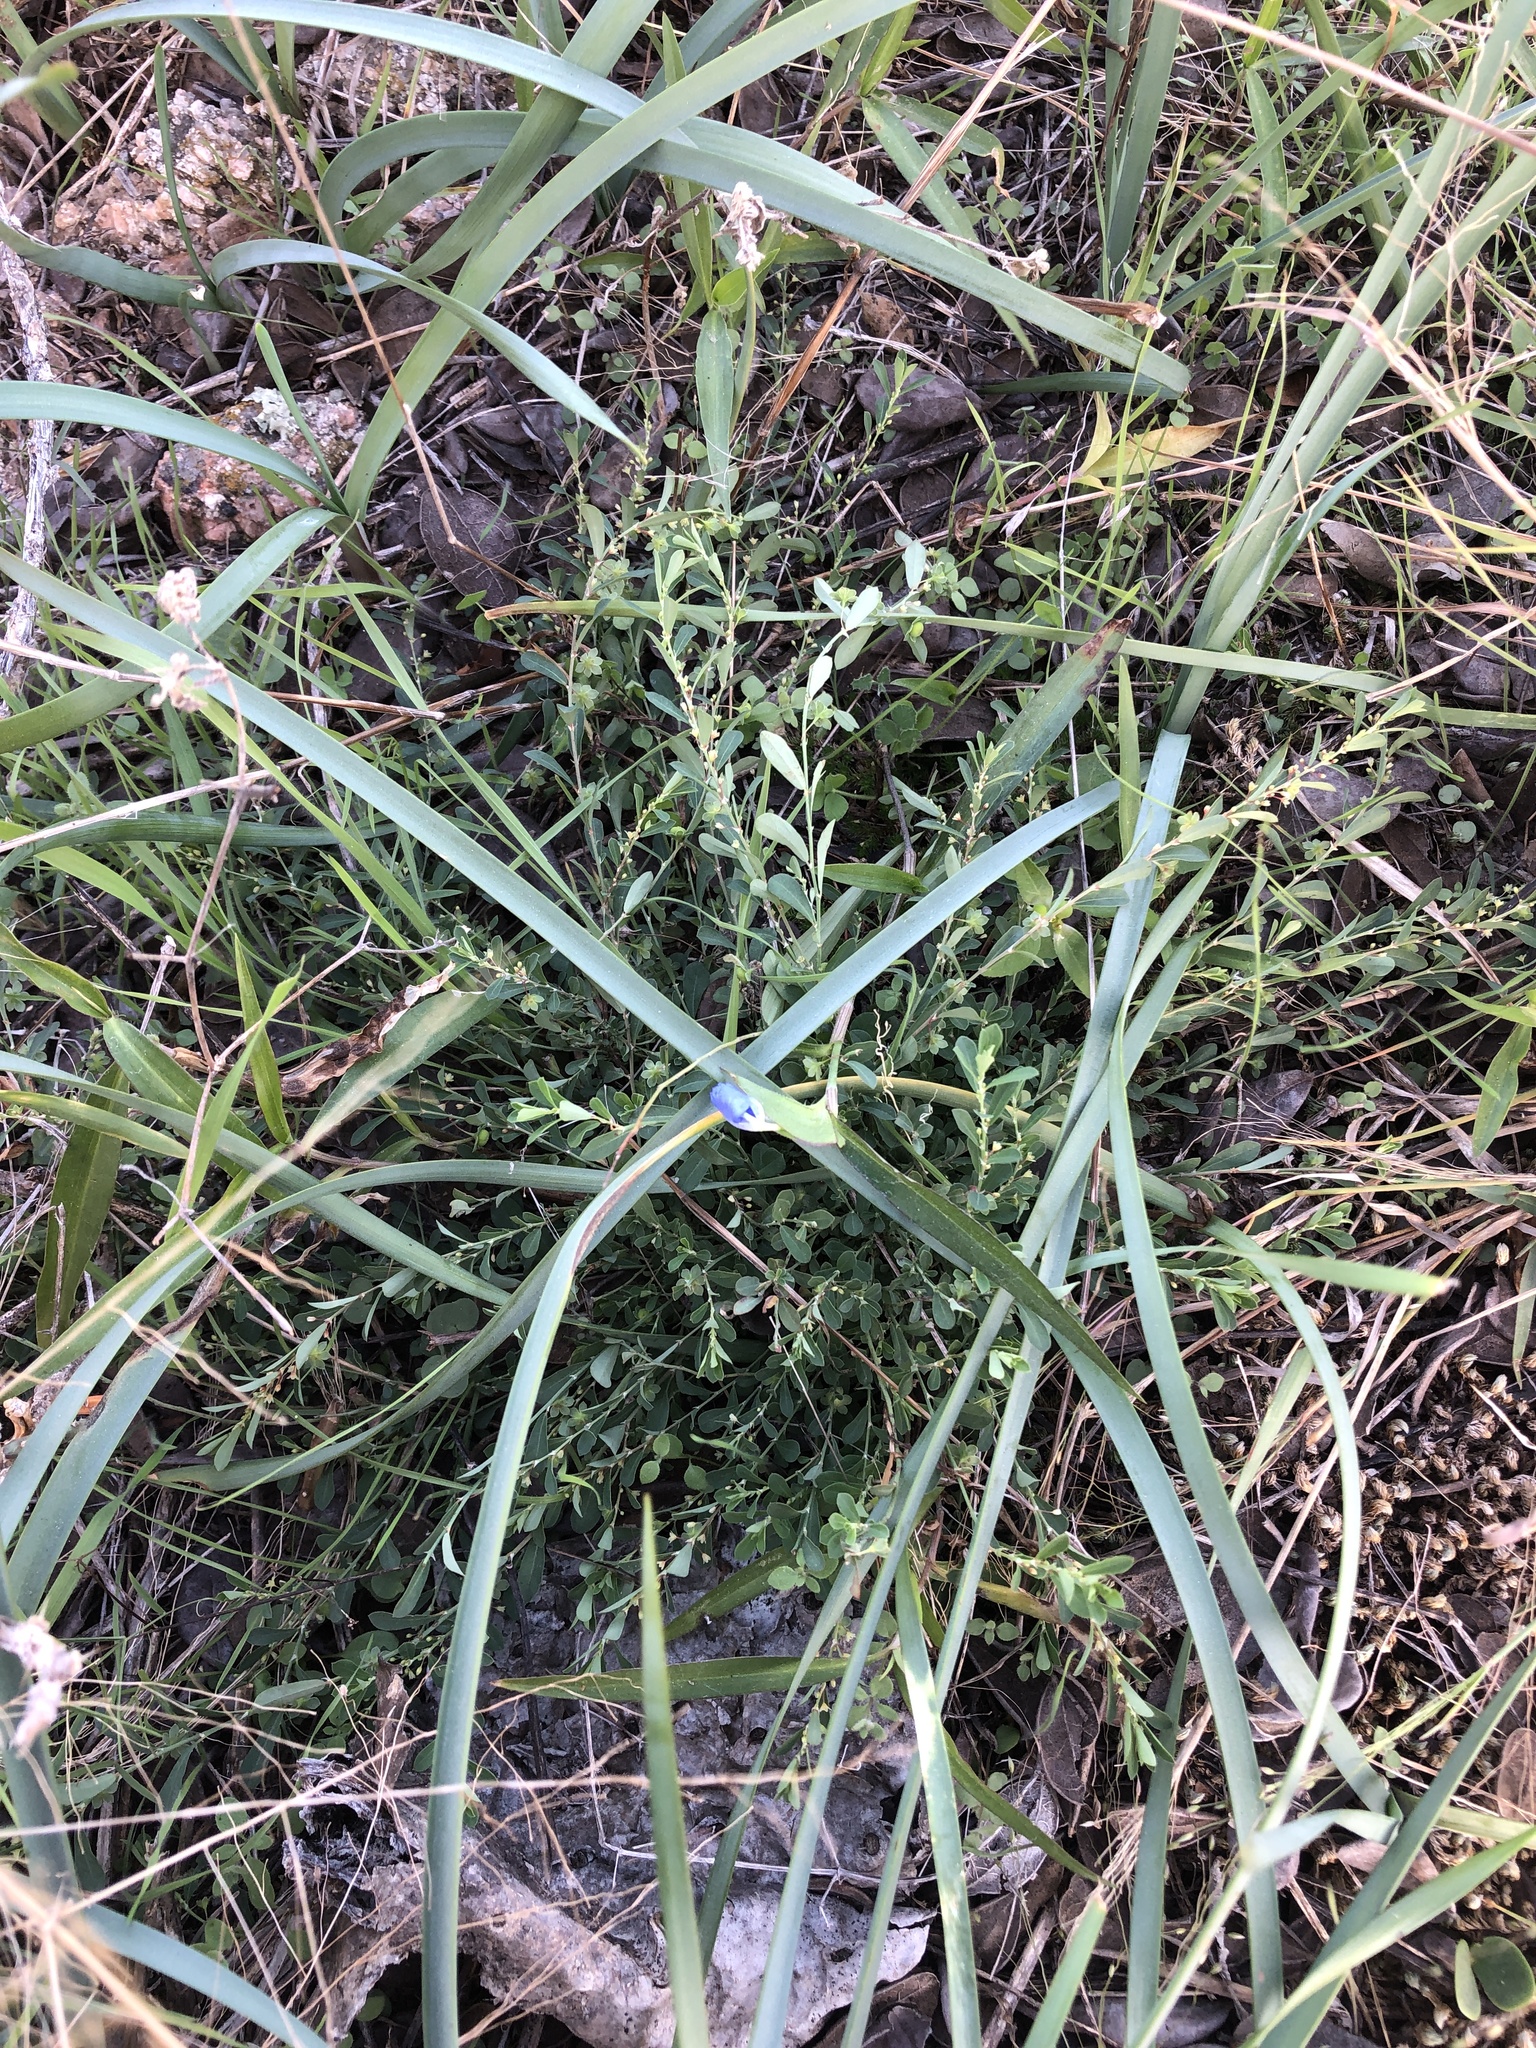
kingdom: Plantae
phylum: Tracheophyta
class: Magnoliopsida
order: Malpighiales
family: Phyllanthaceae
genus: Phyllanthus
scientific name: Phyllanthus polygonoides
